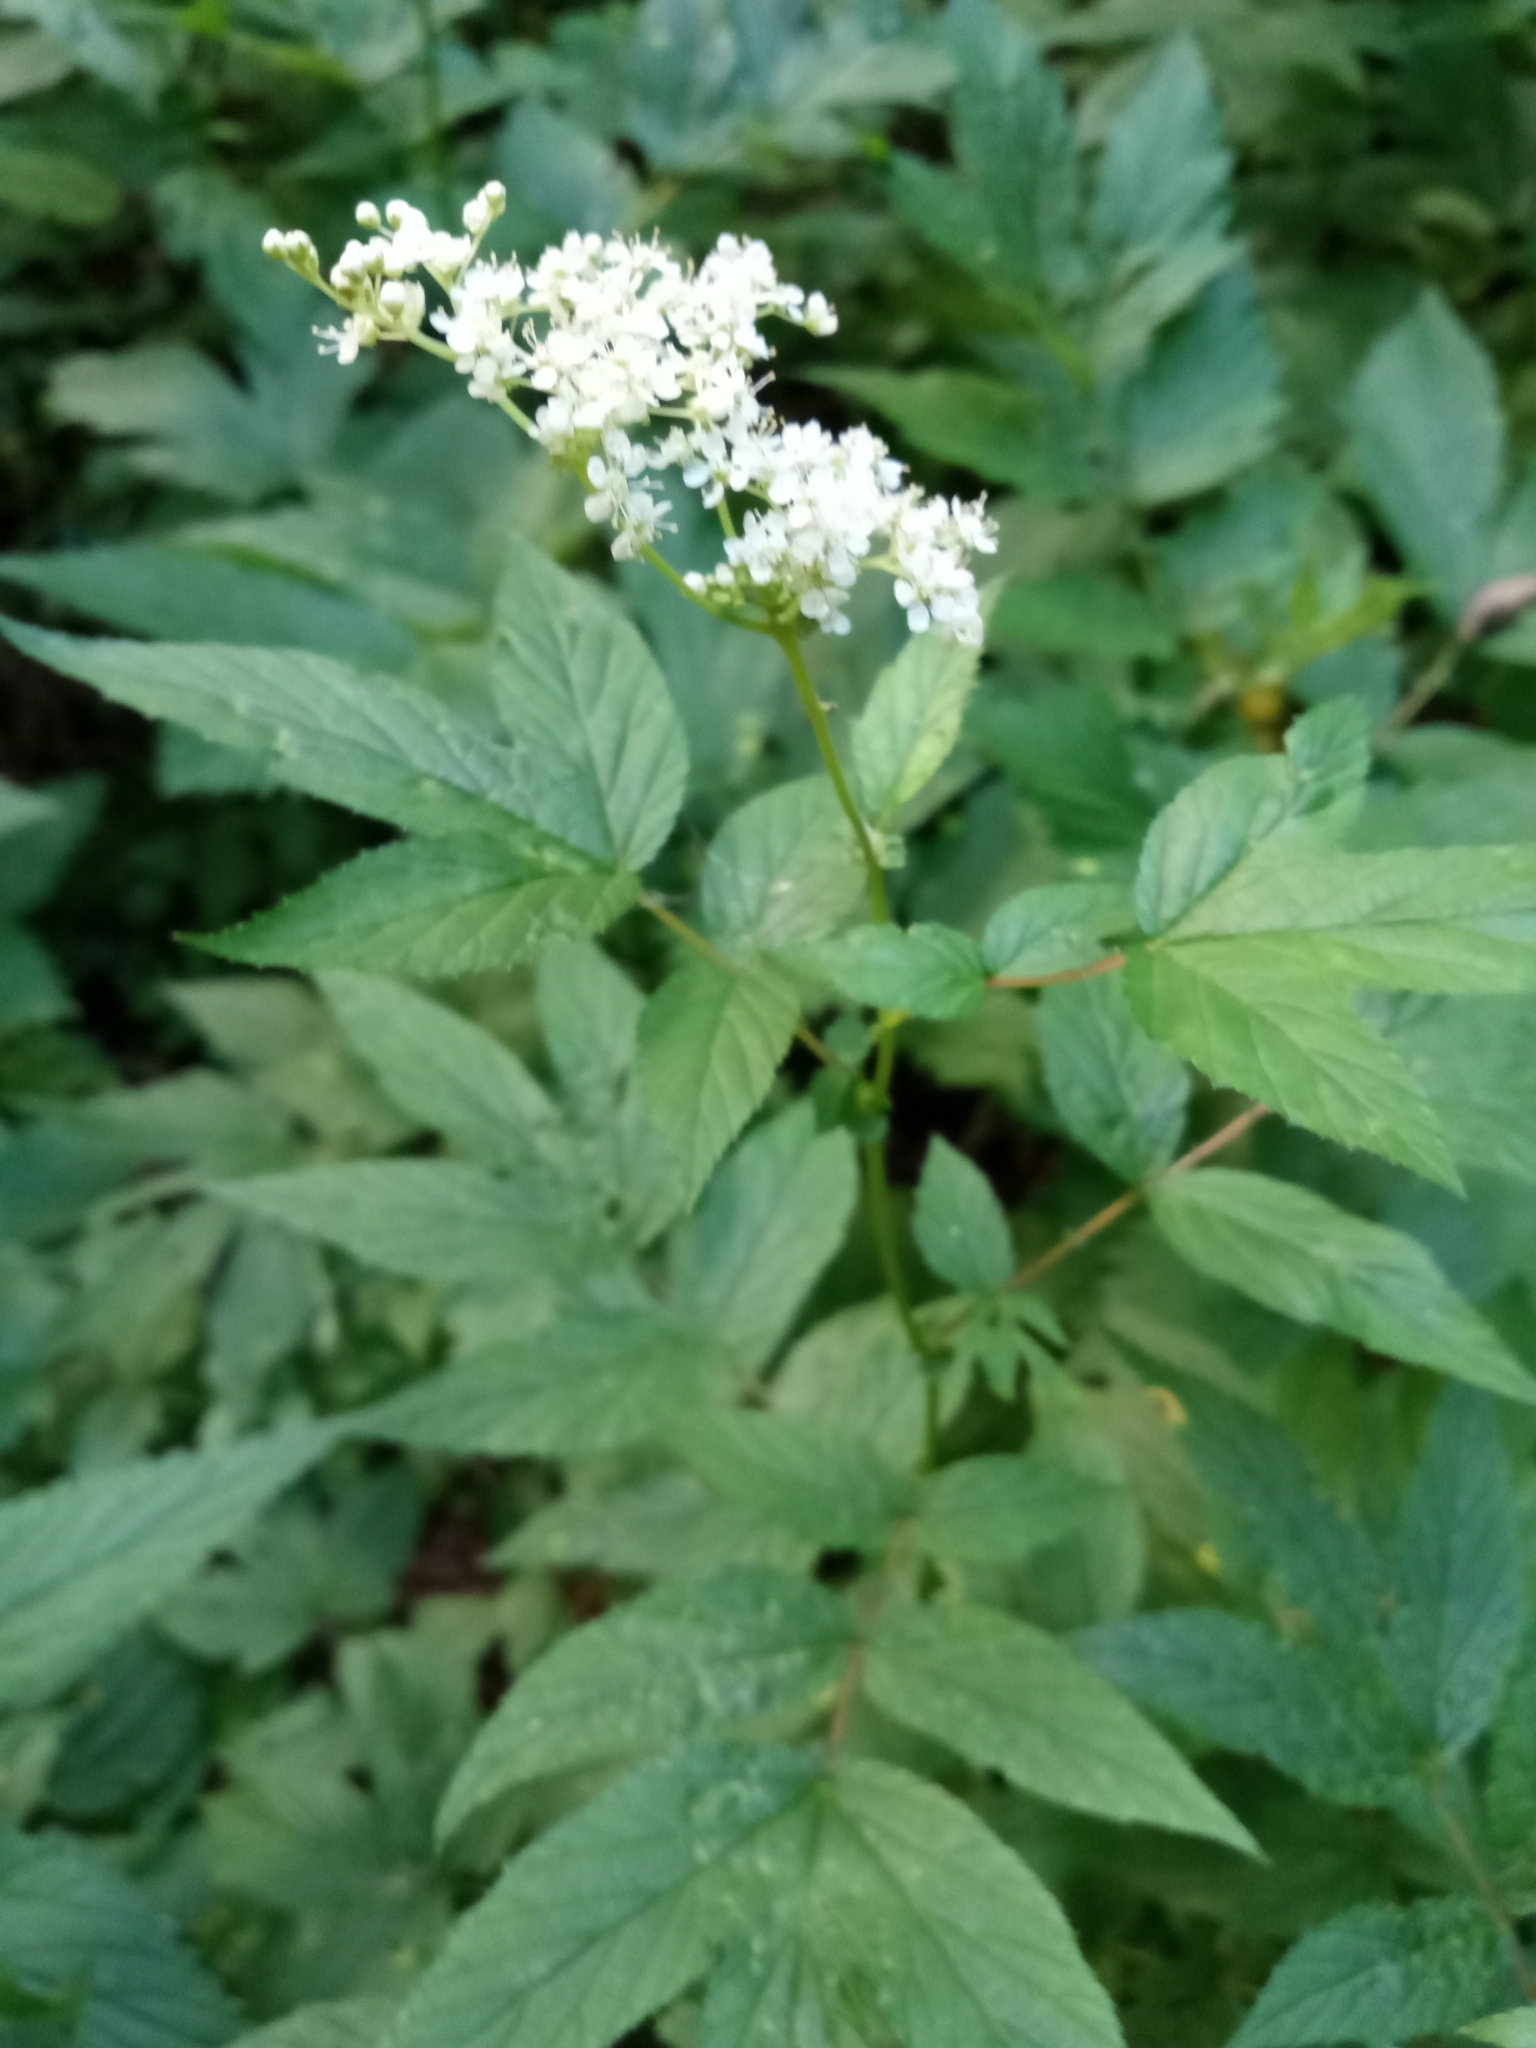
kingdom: Plantae
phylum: Tracheophyta
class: Magnoliopsida
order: Rosales
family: Rosaceae
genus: Filipendula
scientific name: Filipendula ulmaria
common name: Meadowsweet
